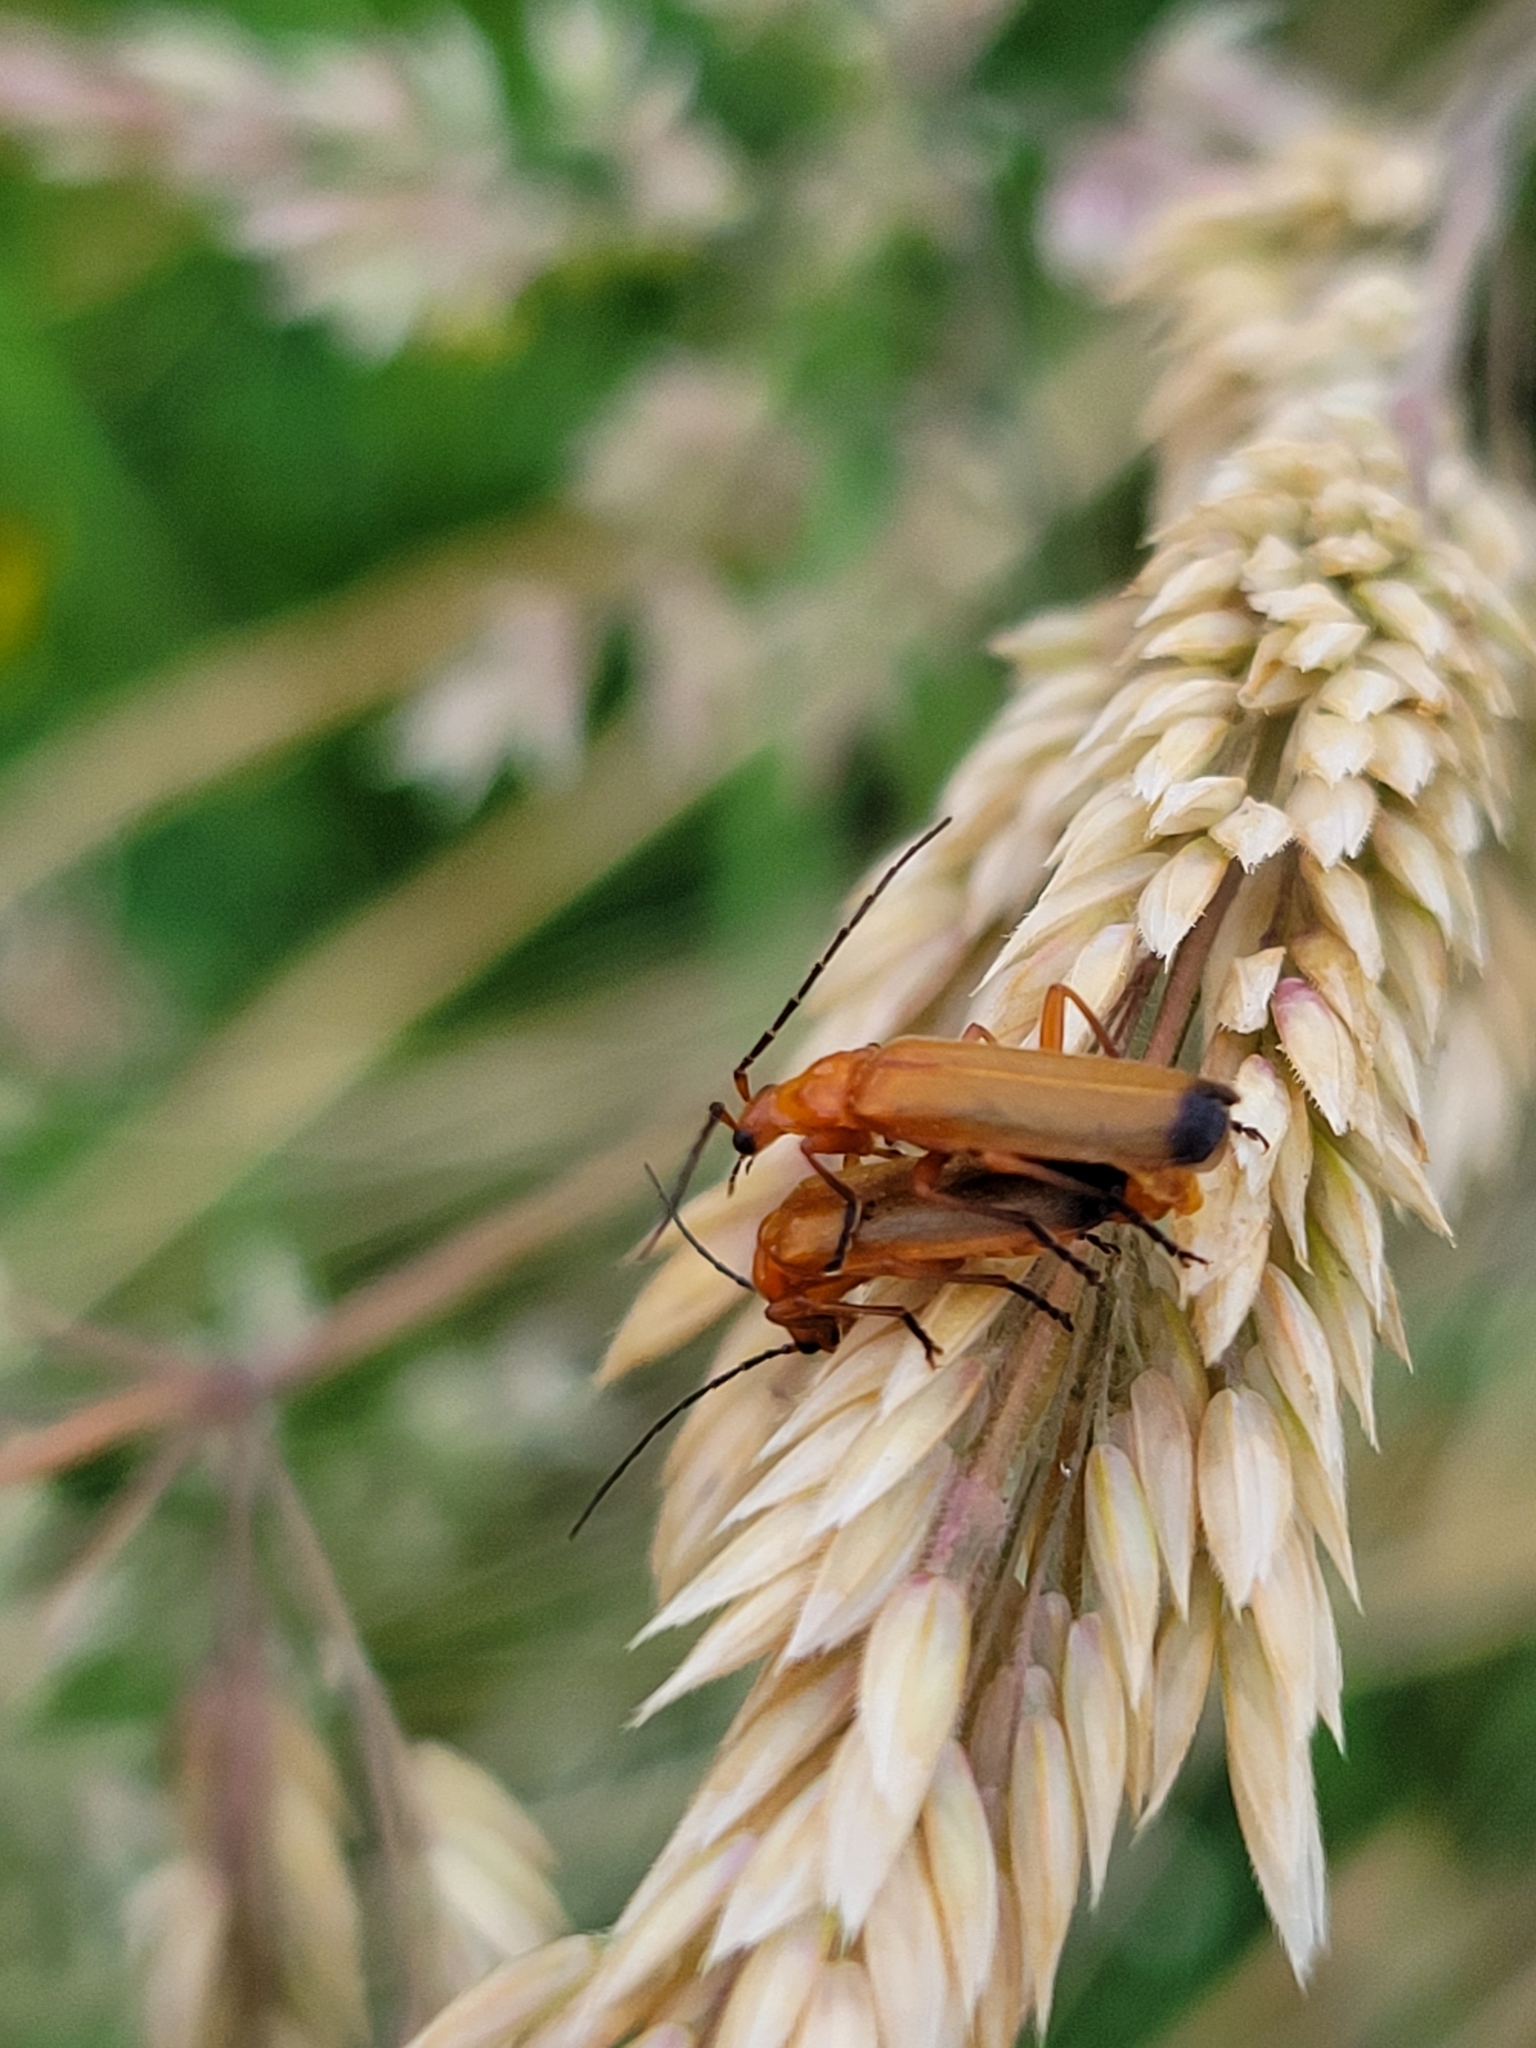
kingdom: Animalia
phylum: Arthropoda
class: Insecta
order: Coleoptera
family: Cantharidae
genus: Rhagonycha
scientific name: Rhagonycha fulva
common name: Common red soldier beetle
